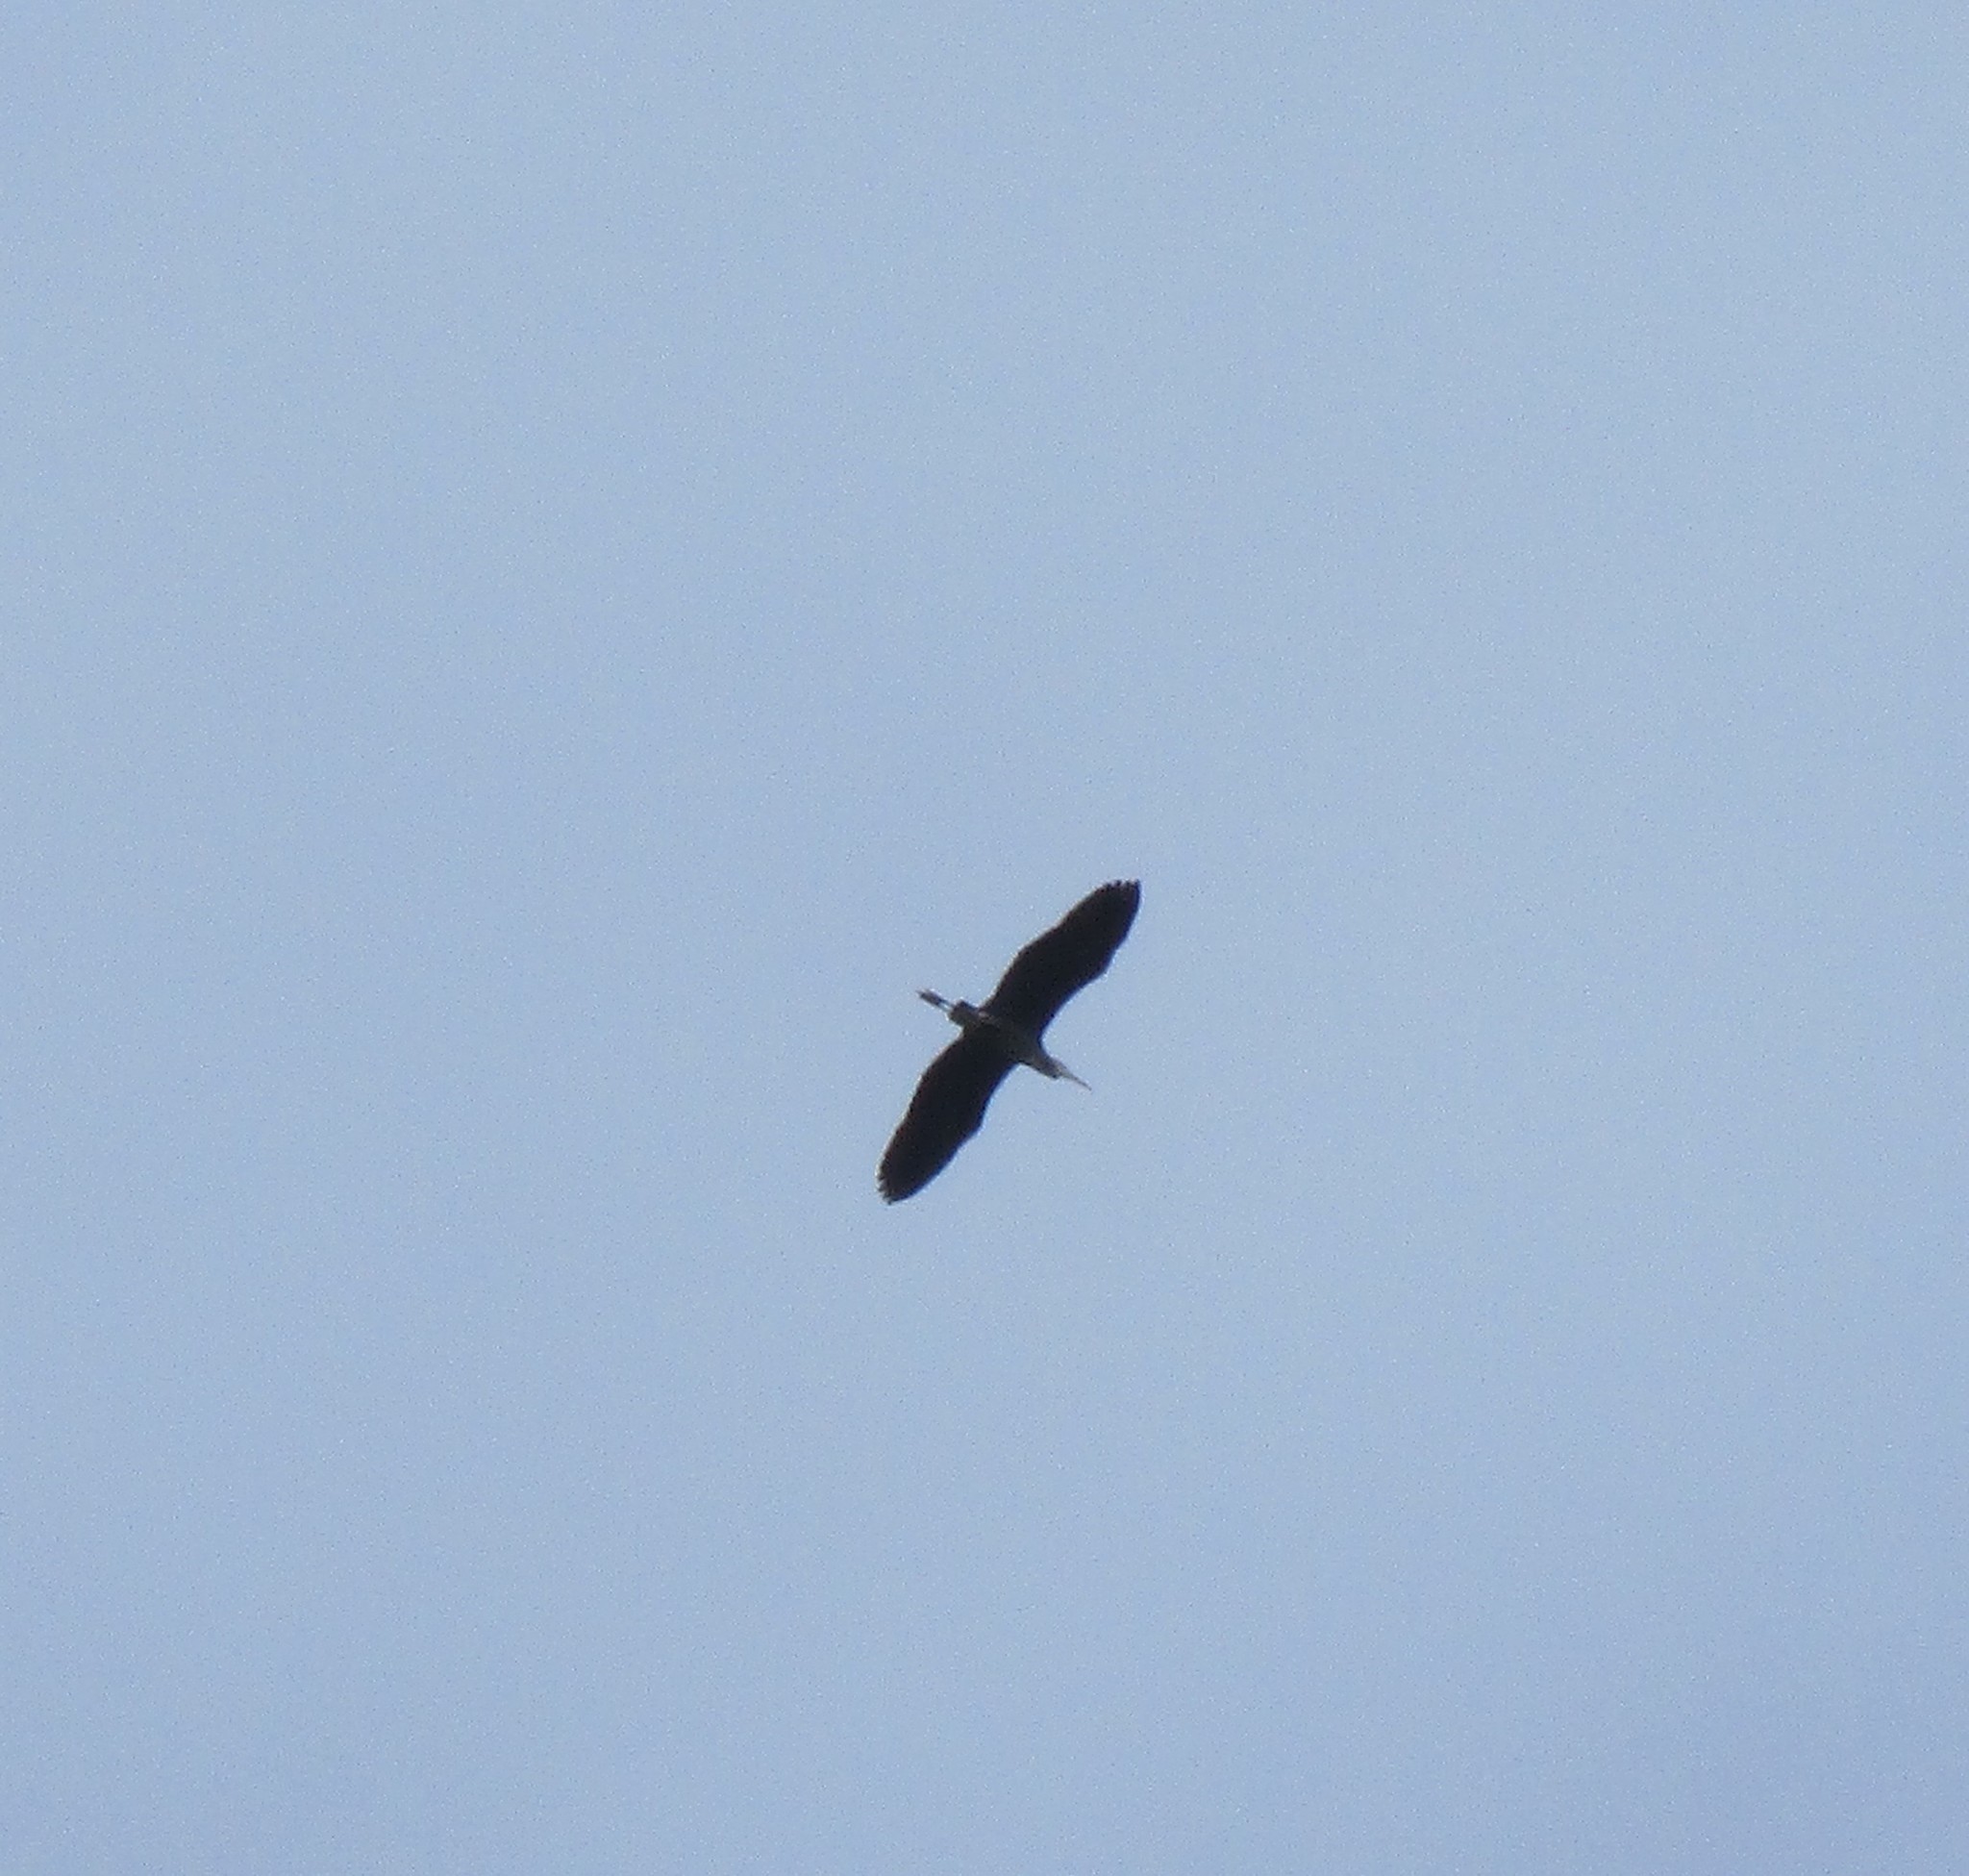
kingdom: Animalia
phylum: Chordata
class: Aves
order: Pelecaniformes
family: Ardeidae
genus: Ardea
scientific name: Ardea herodias
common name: Great blue heron
